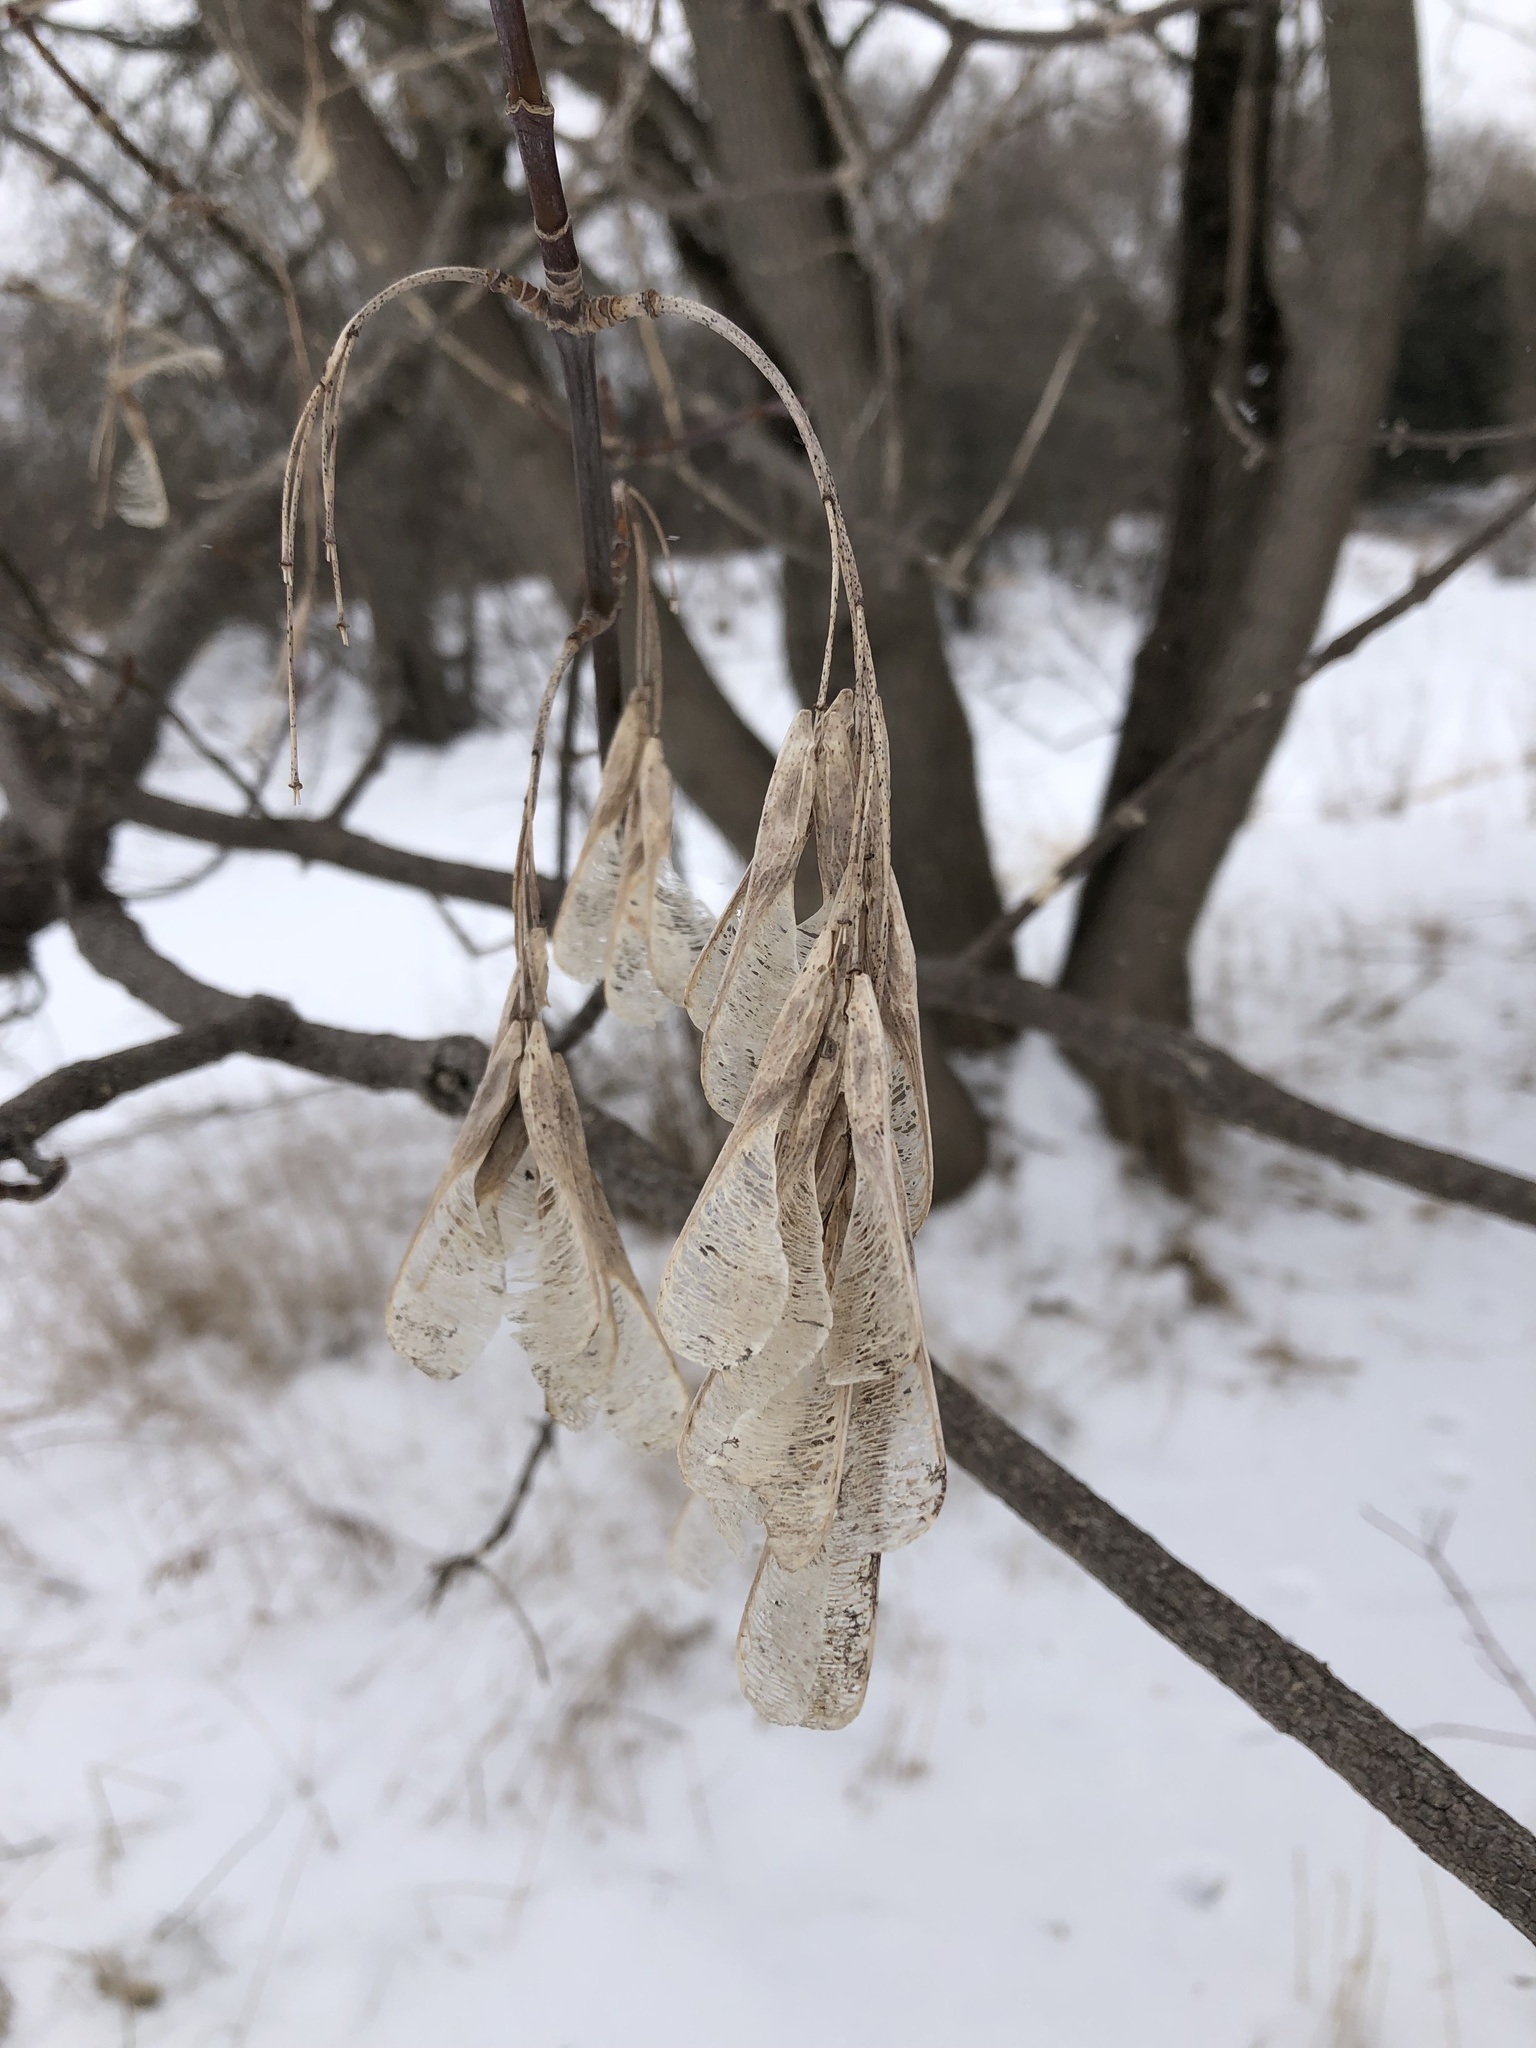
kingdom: Plantae
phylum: Tracheophyta
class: Magnoliopsida
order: Sapindales
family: Sapindaceae
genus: Acer
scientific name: Acer negundo
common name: Ashleaf maple
